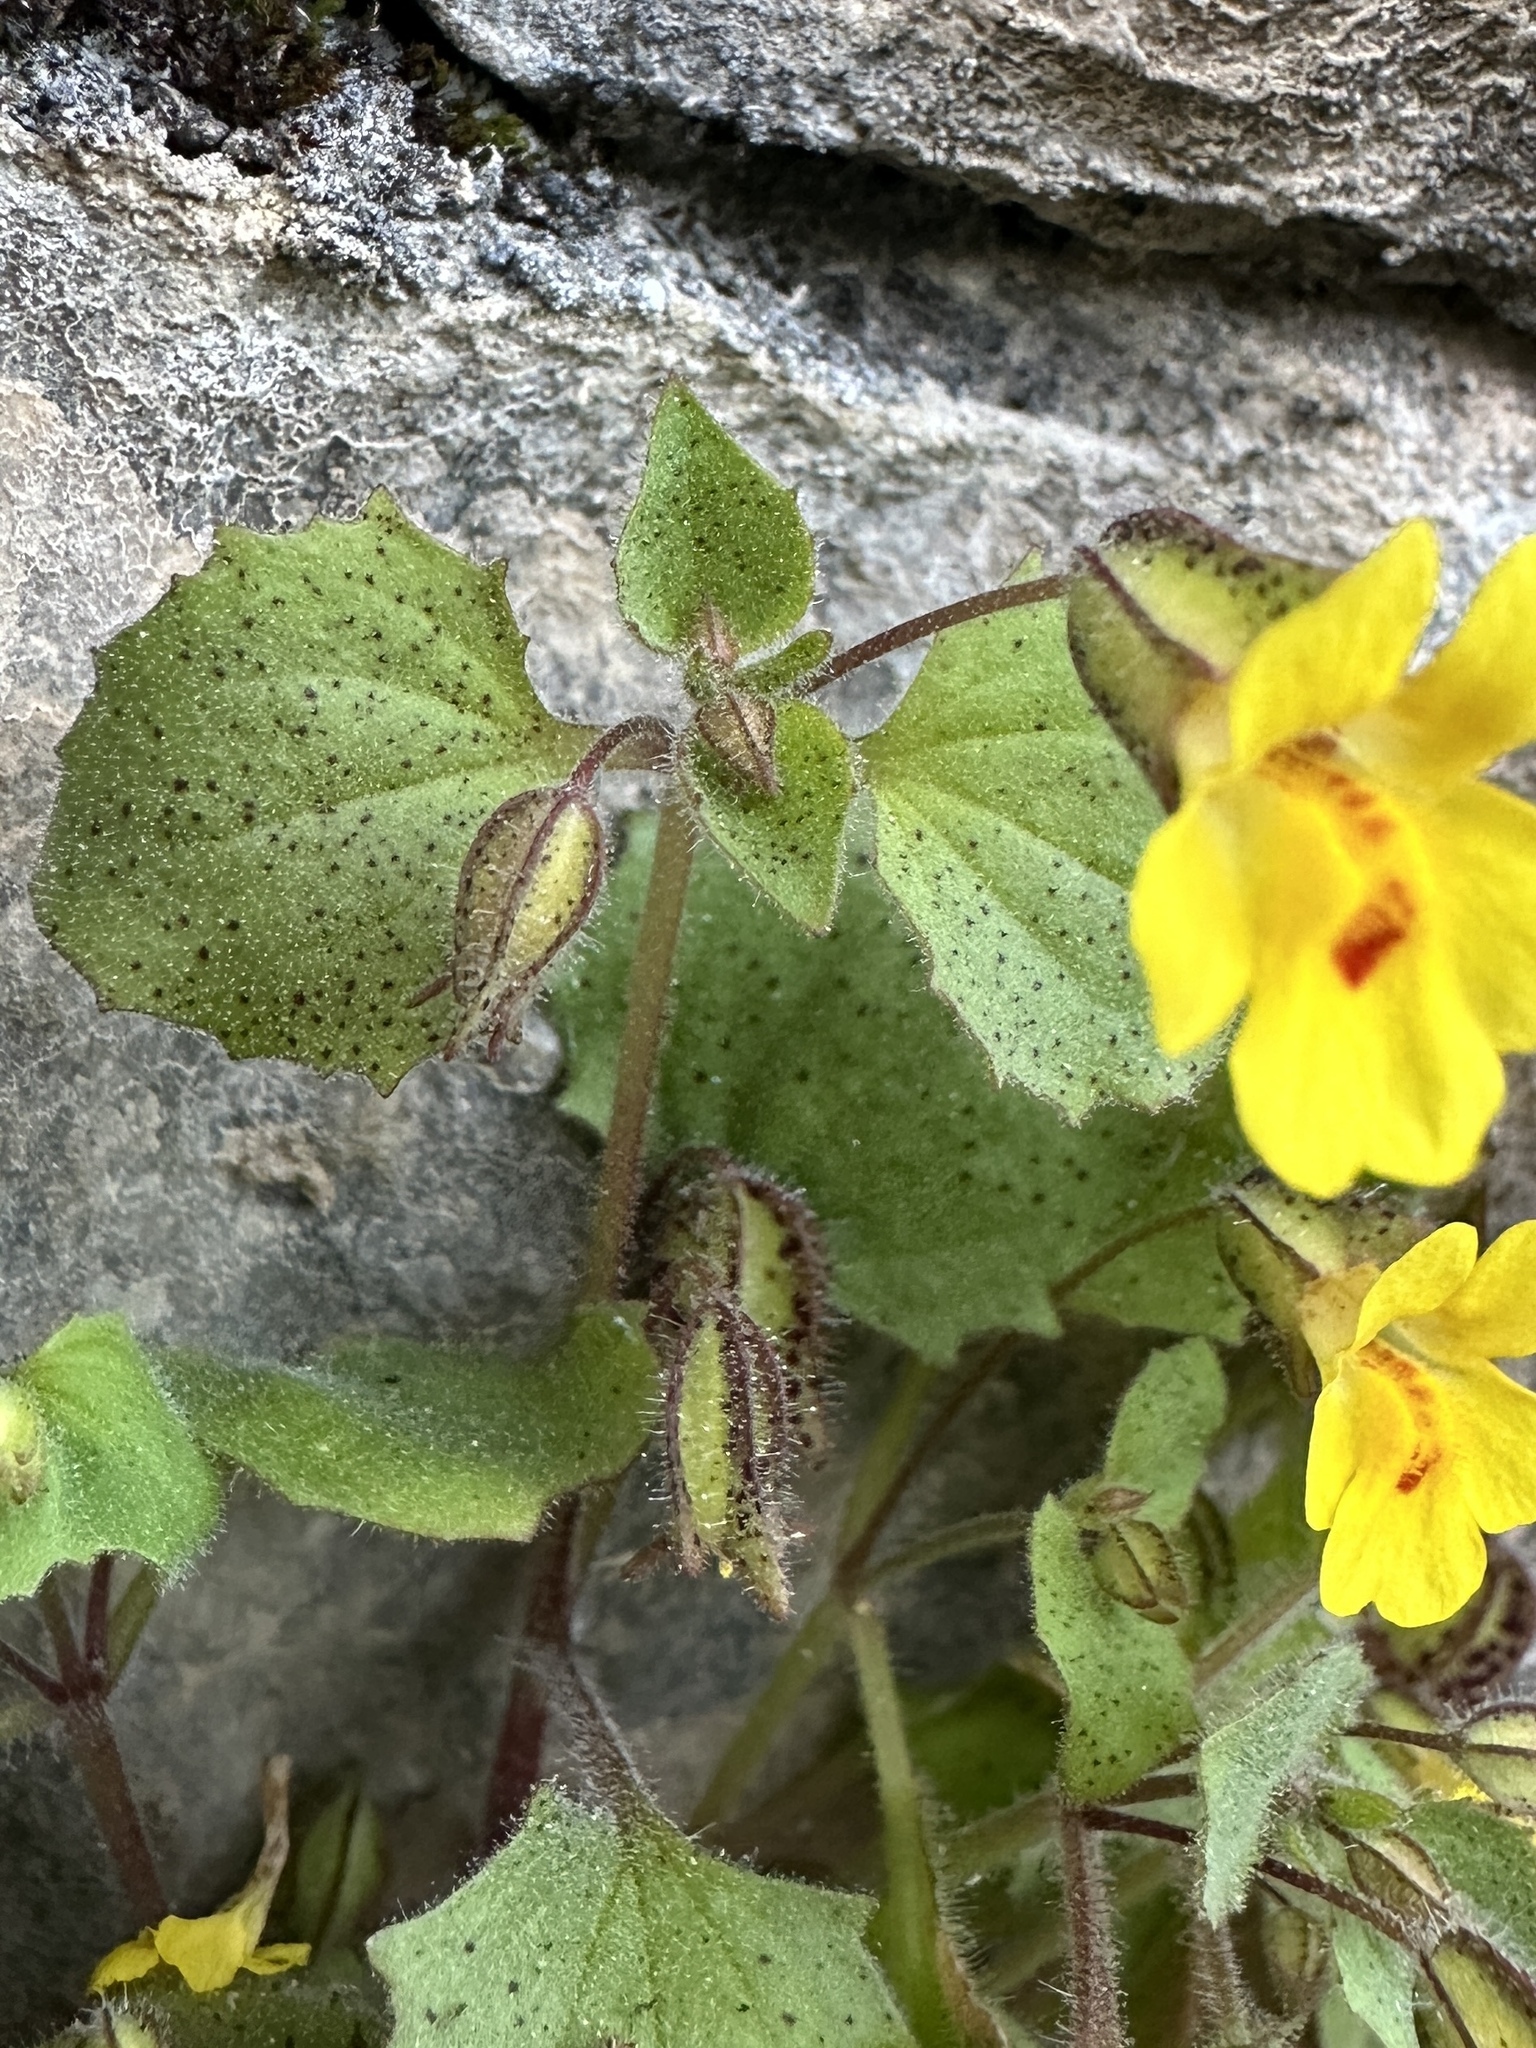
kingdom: Plantae
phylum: Tracheophyta
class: Magnoliopsida
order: Lamiales
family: Phrymaceae
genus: Erythranthe
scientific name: Erythranthe marmorata
